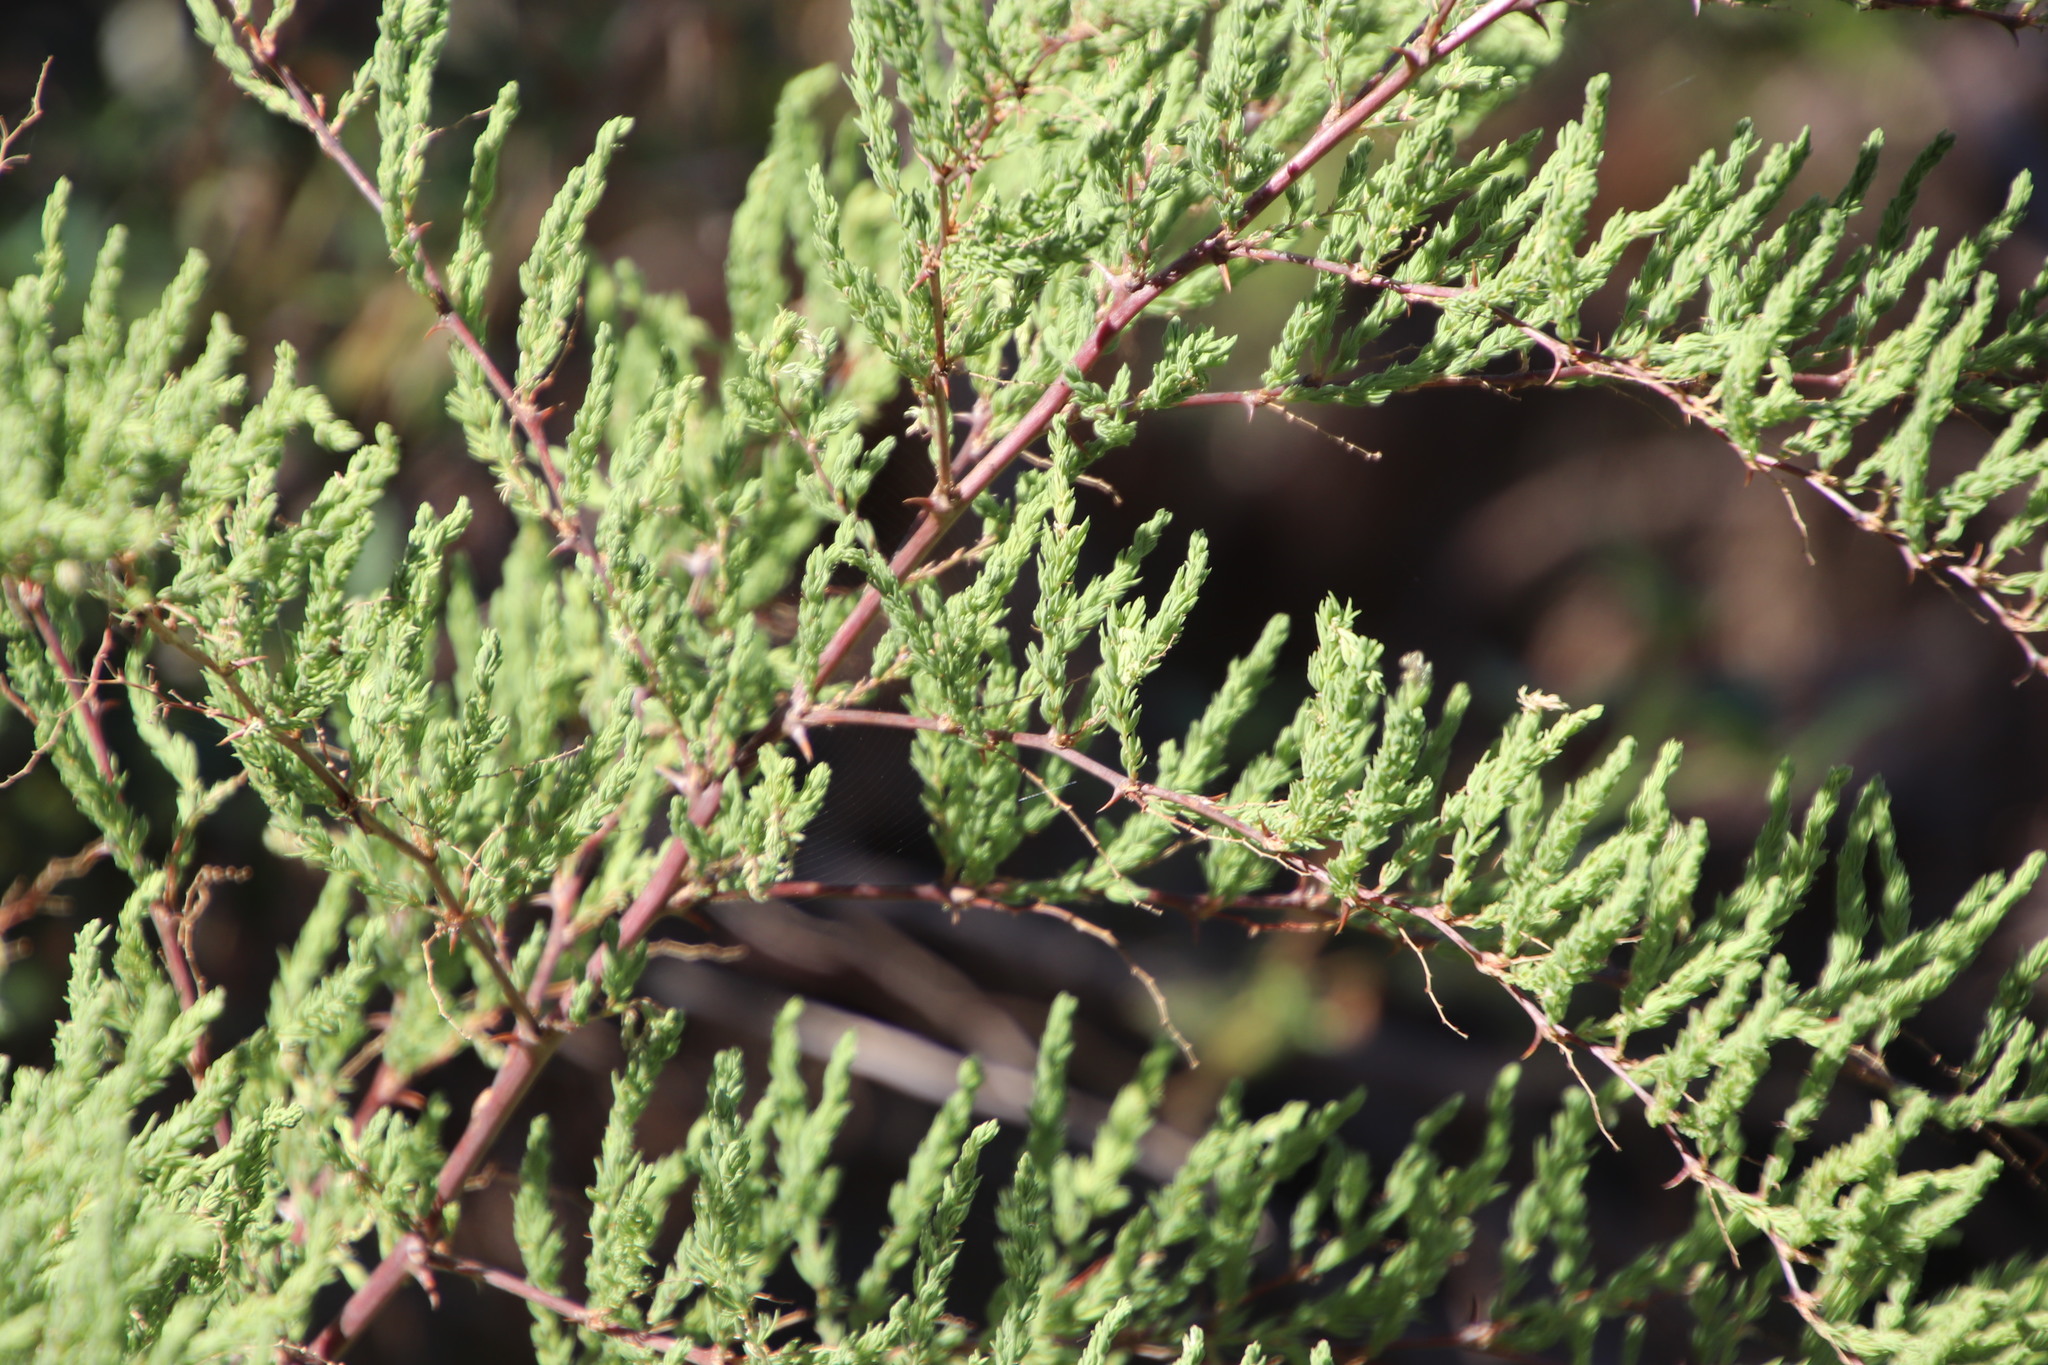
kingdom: Plantae
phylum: Tracheophyta
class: Liliopsida
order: Asparagales
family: Asparagaceae
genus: Asparagus
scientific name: Asparagus rubicundus
